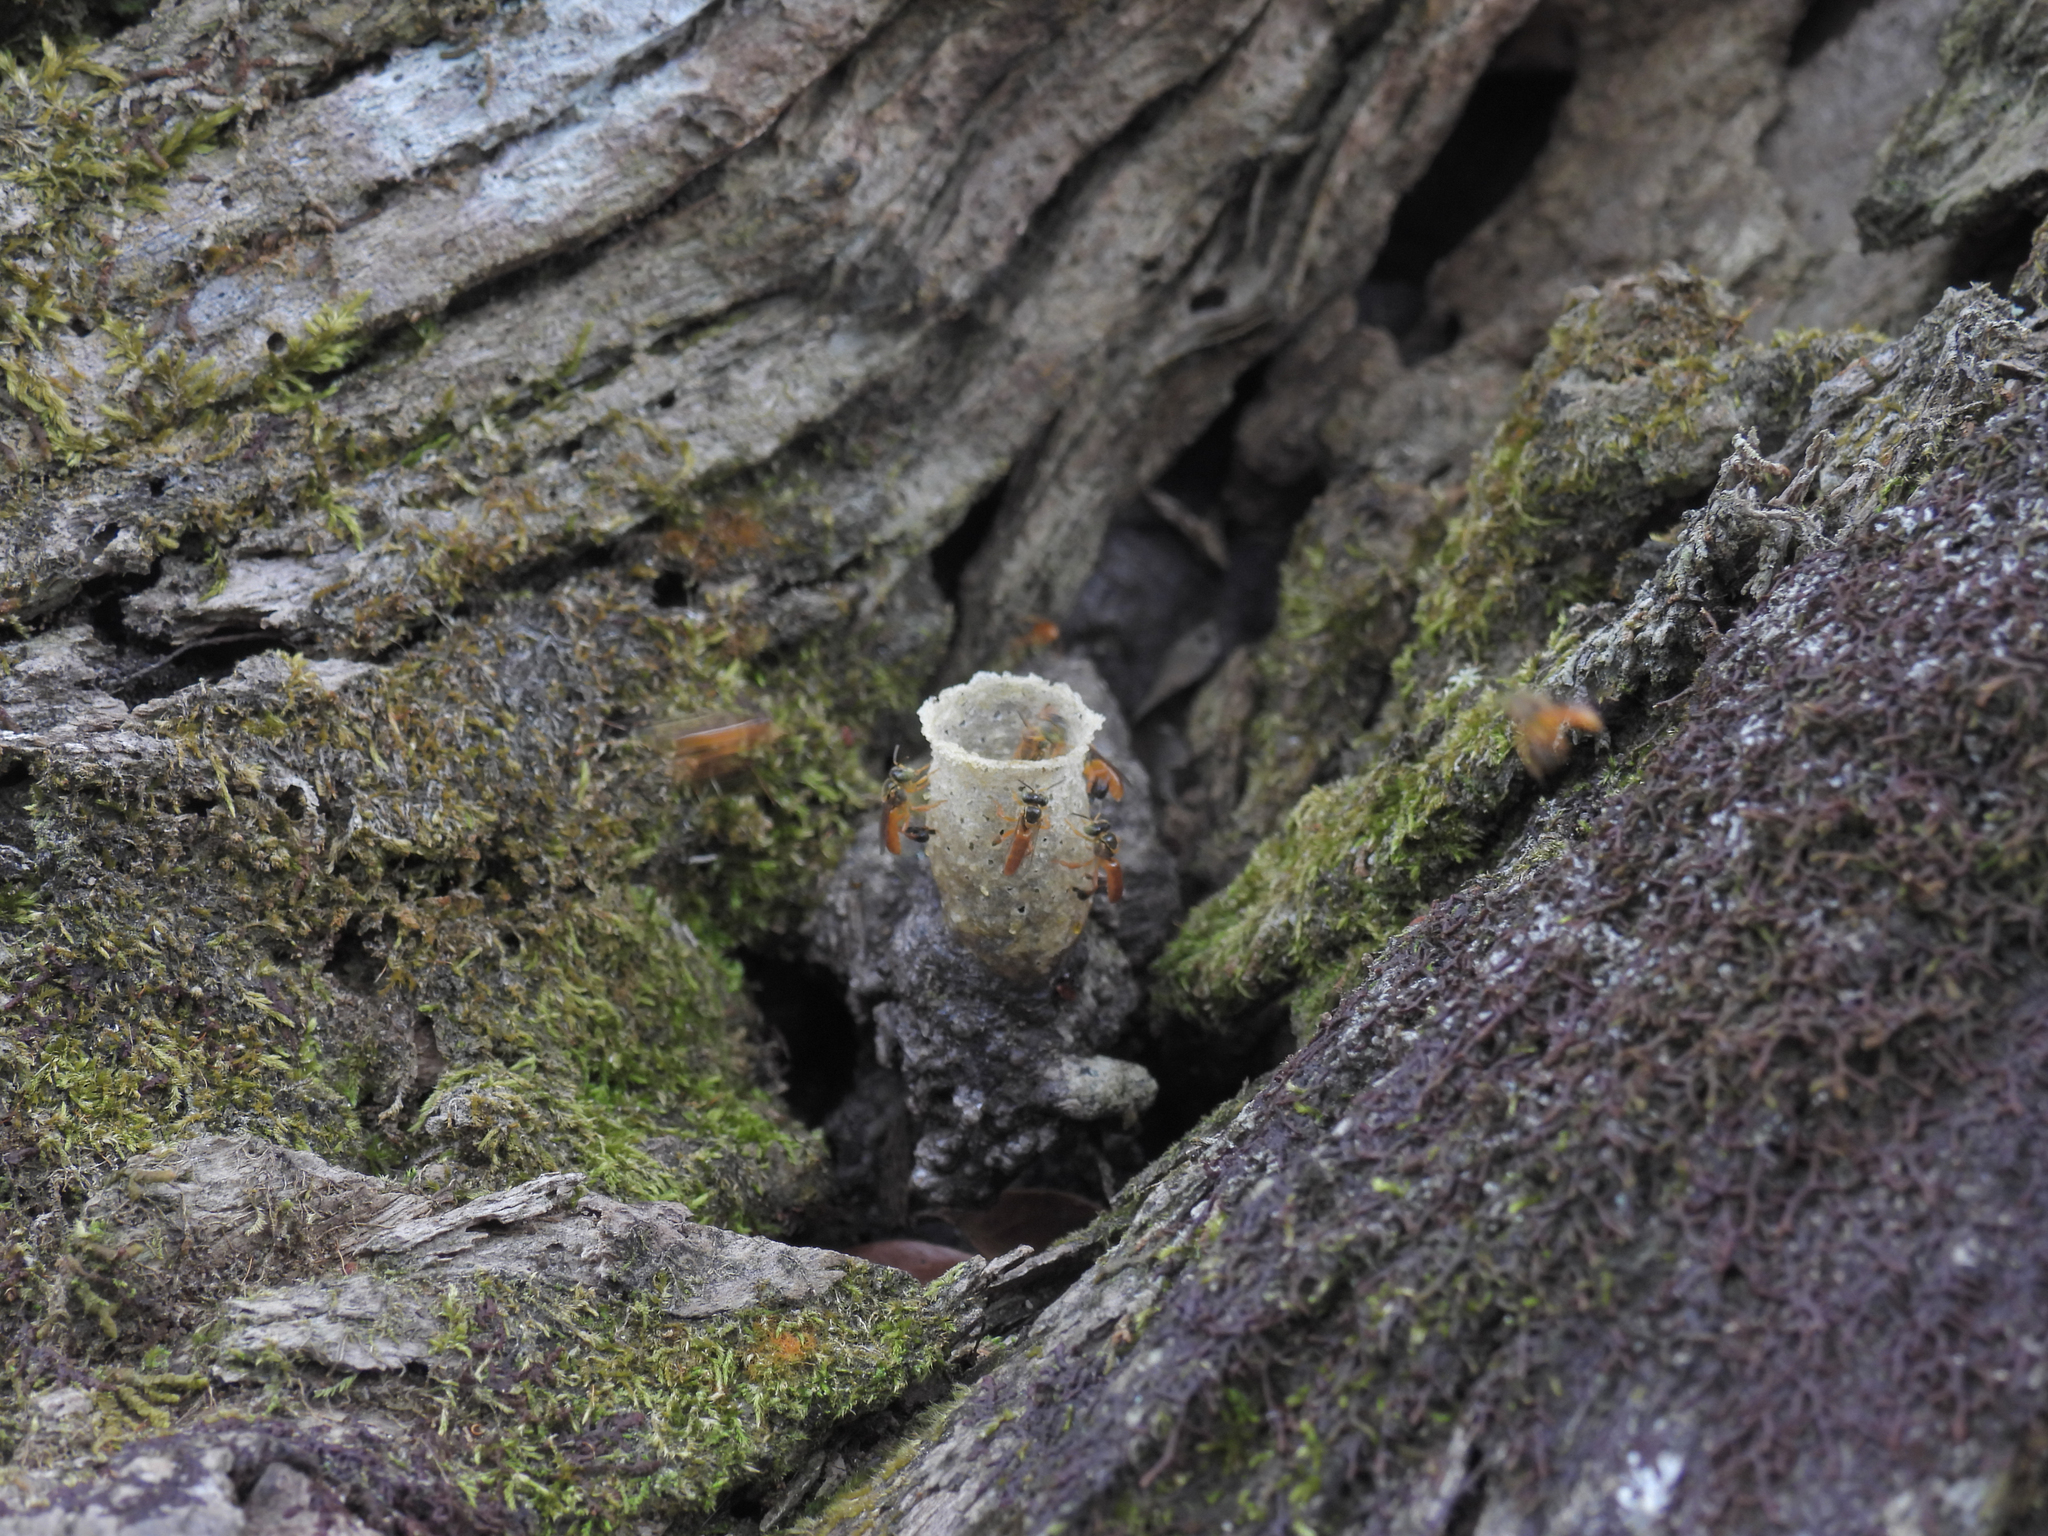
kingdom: Animalia
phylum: Arthropoda
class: Insecta
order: Hymenoptera
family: Apidae
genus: Tetragonisca
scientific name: Tetragonisca angustula
